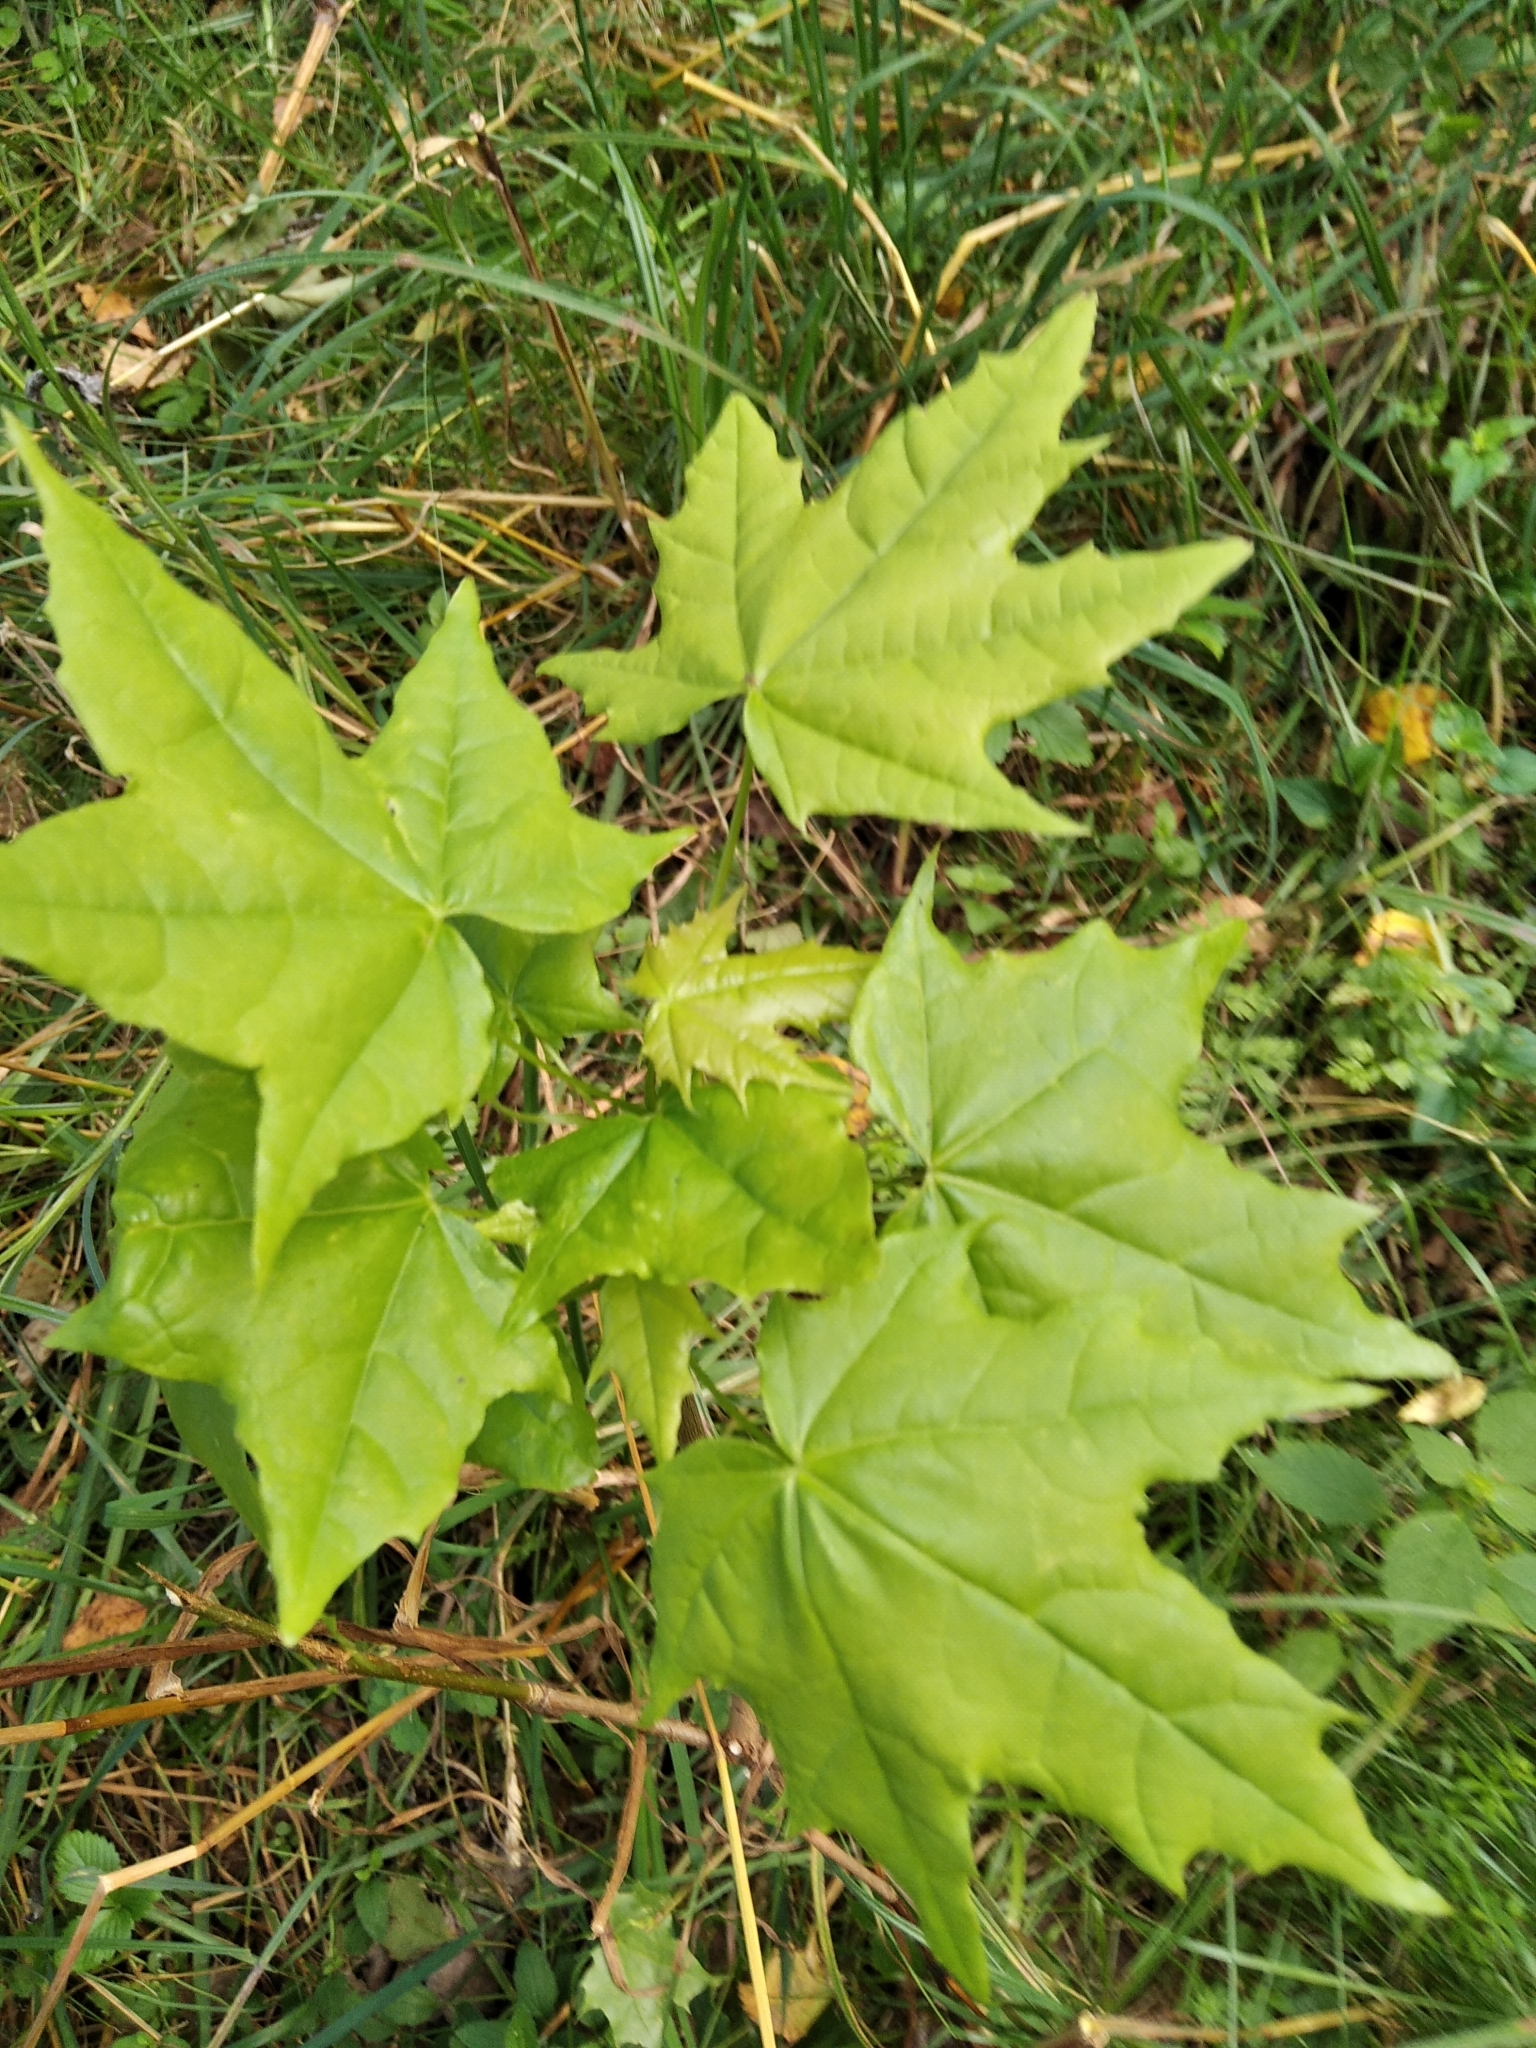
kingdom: Plantae
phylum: Tracheophyta
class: Magnoliopsida
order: Sapindales
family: Sapindaceae
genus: Acer
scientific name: Acer platanoides
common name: Norway maple
